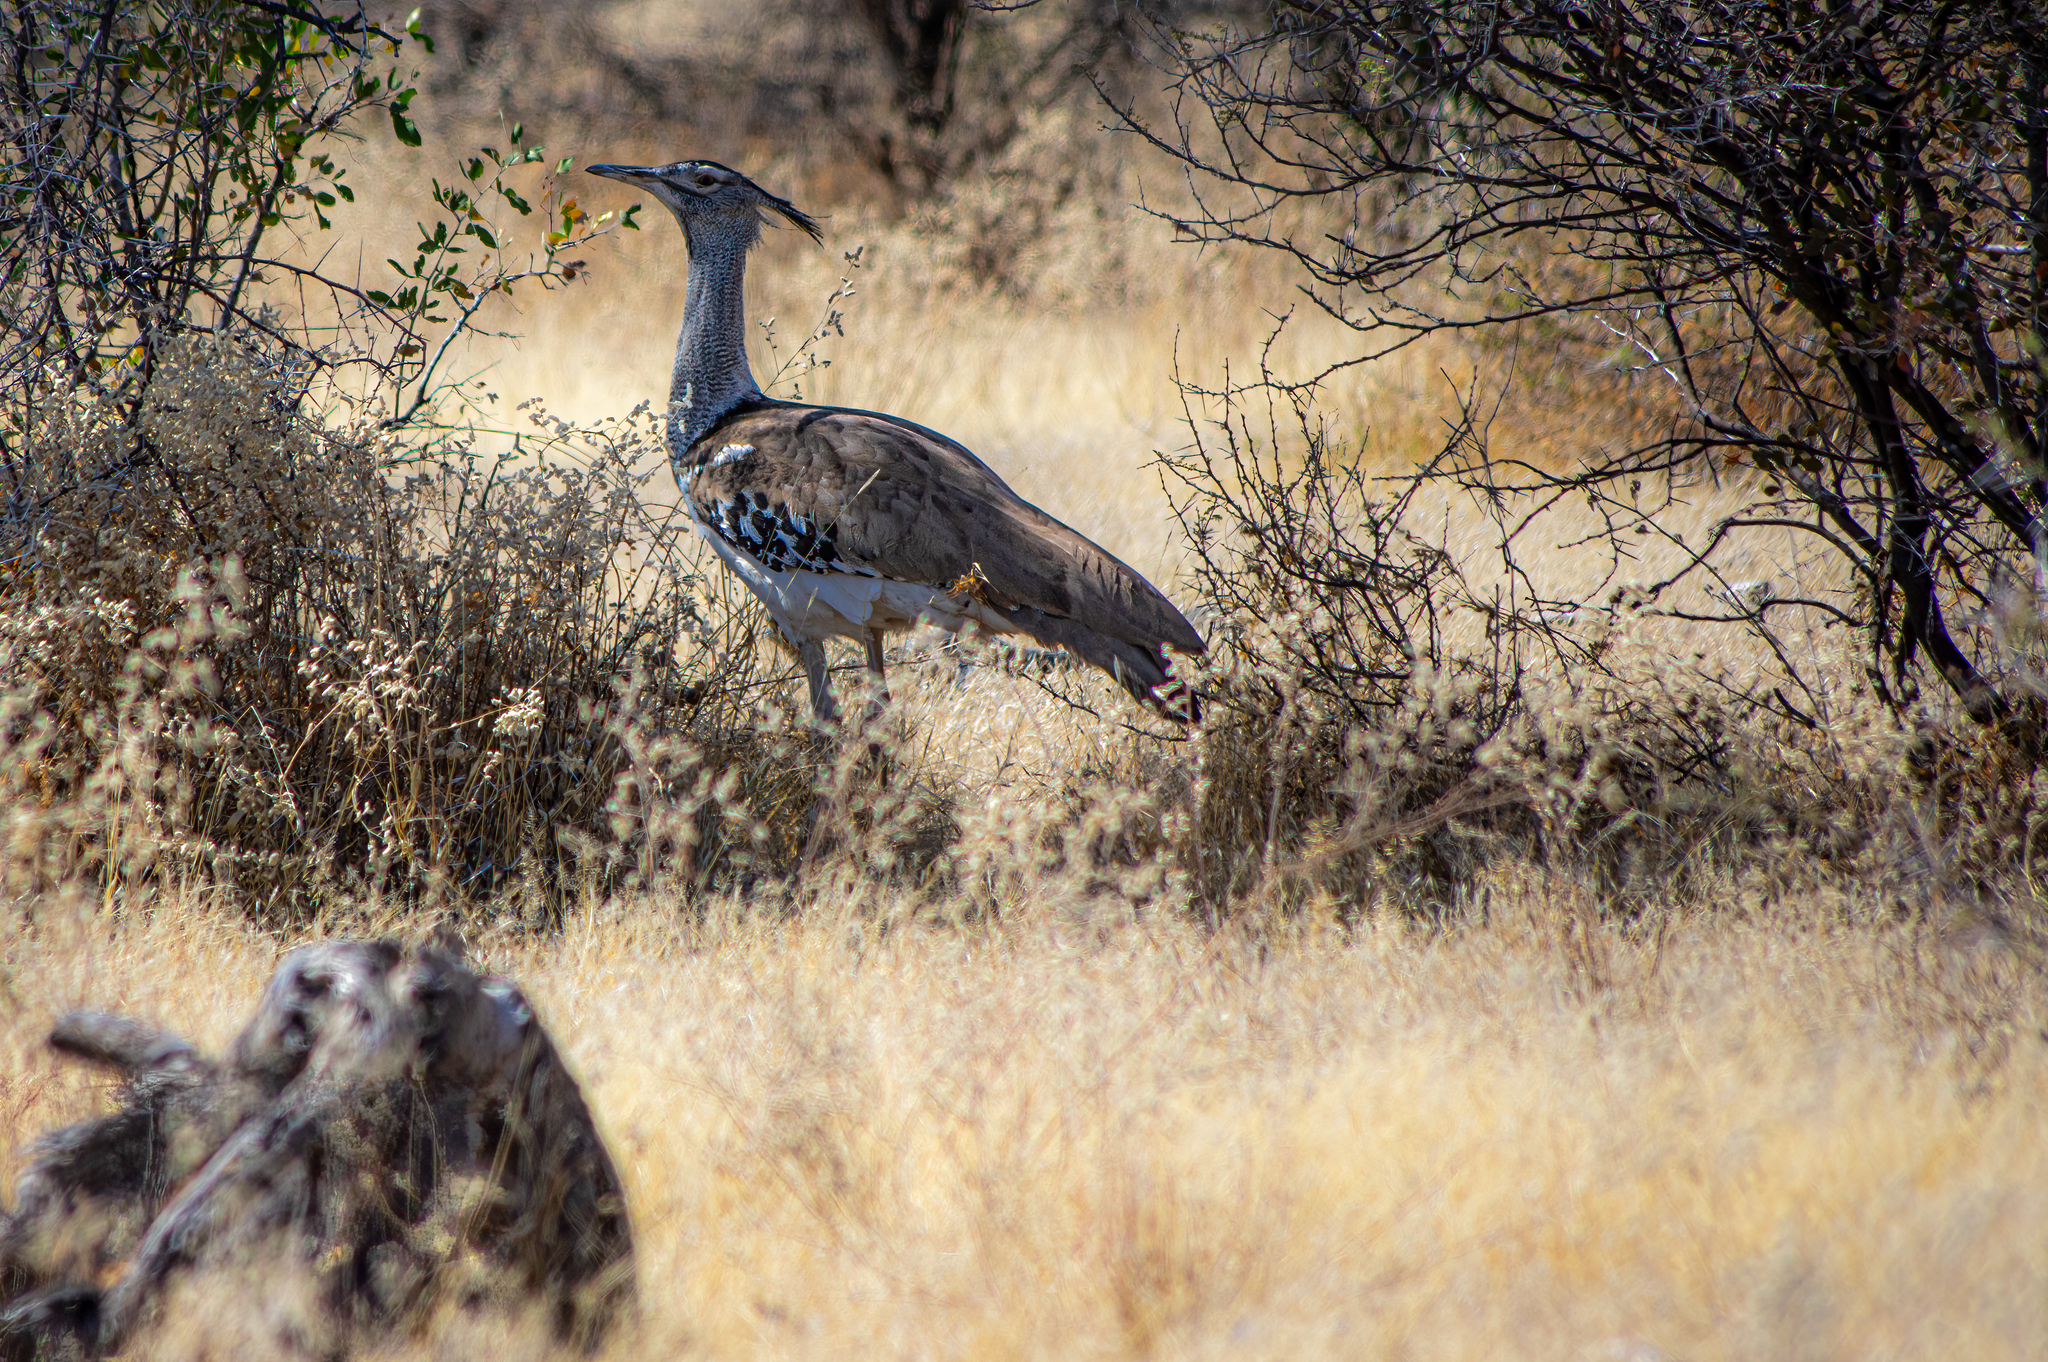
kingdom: Animalia
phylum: Chordata
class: Aves
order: Otidiformes
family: Otididae
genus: Ardeotis
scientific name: Ardeotis kori
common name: Kori bustard
